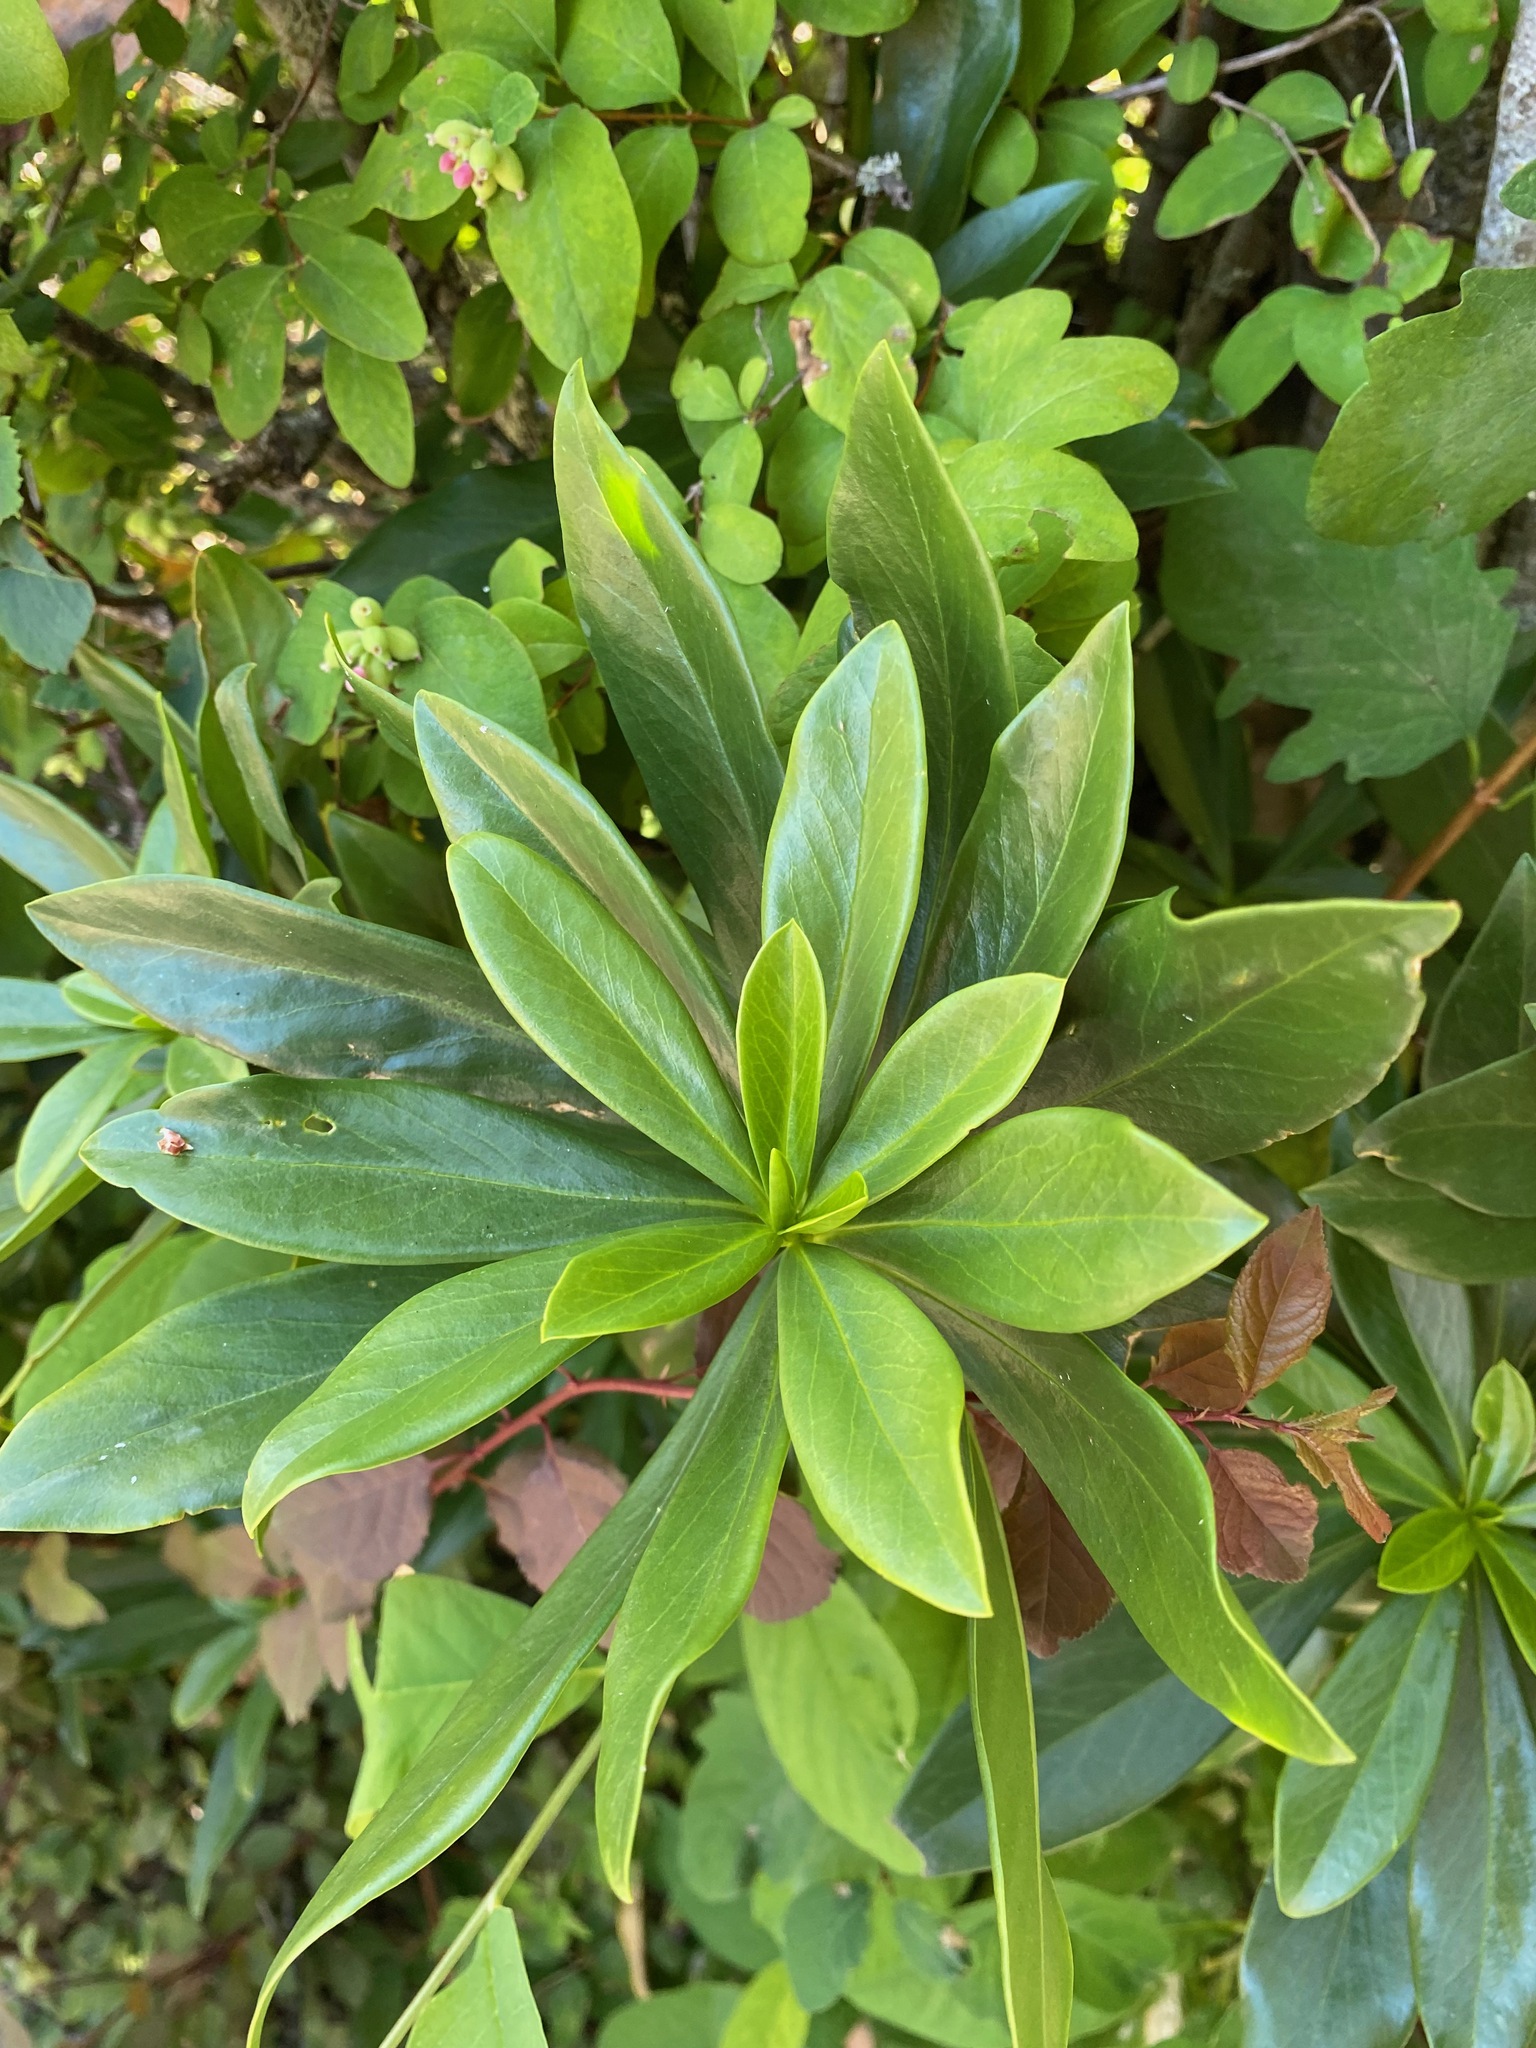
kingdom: Plantae
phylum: Tracheophyta
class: Magnoliopsida
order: Malvales
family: Thymelaeaceae
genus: Daphne
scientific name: Daphne laureola
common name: Spurge-laurel
